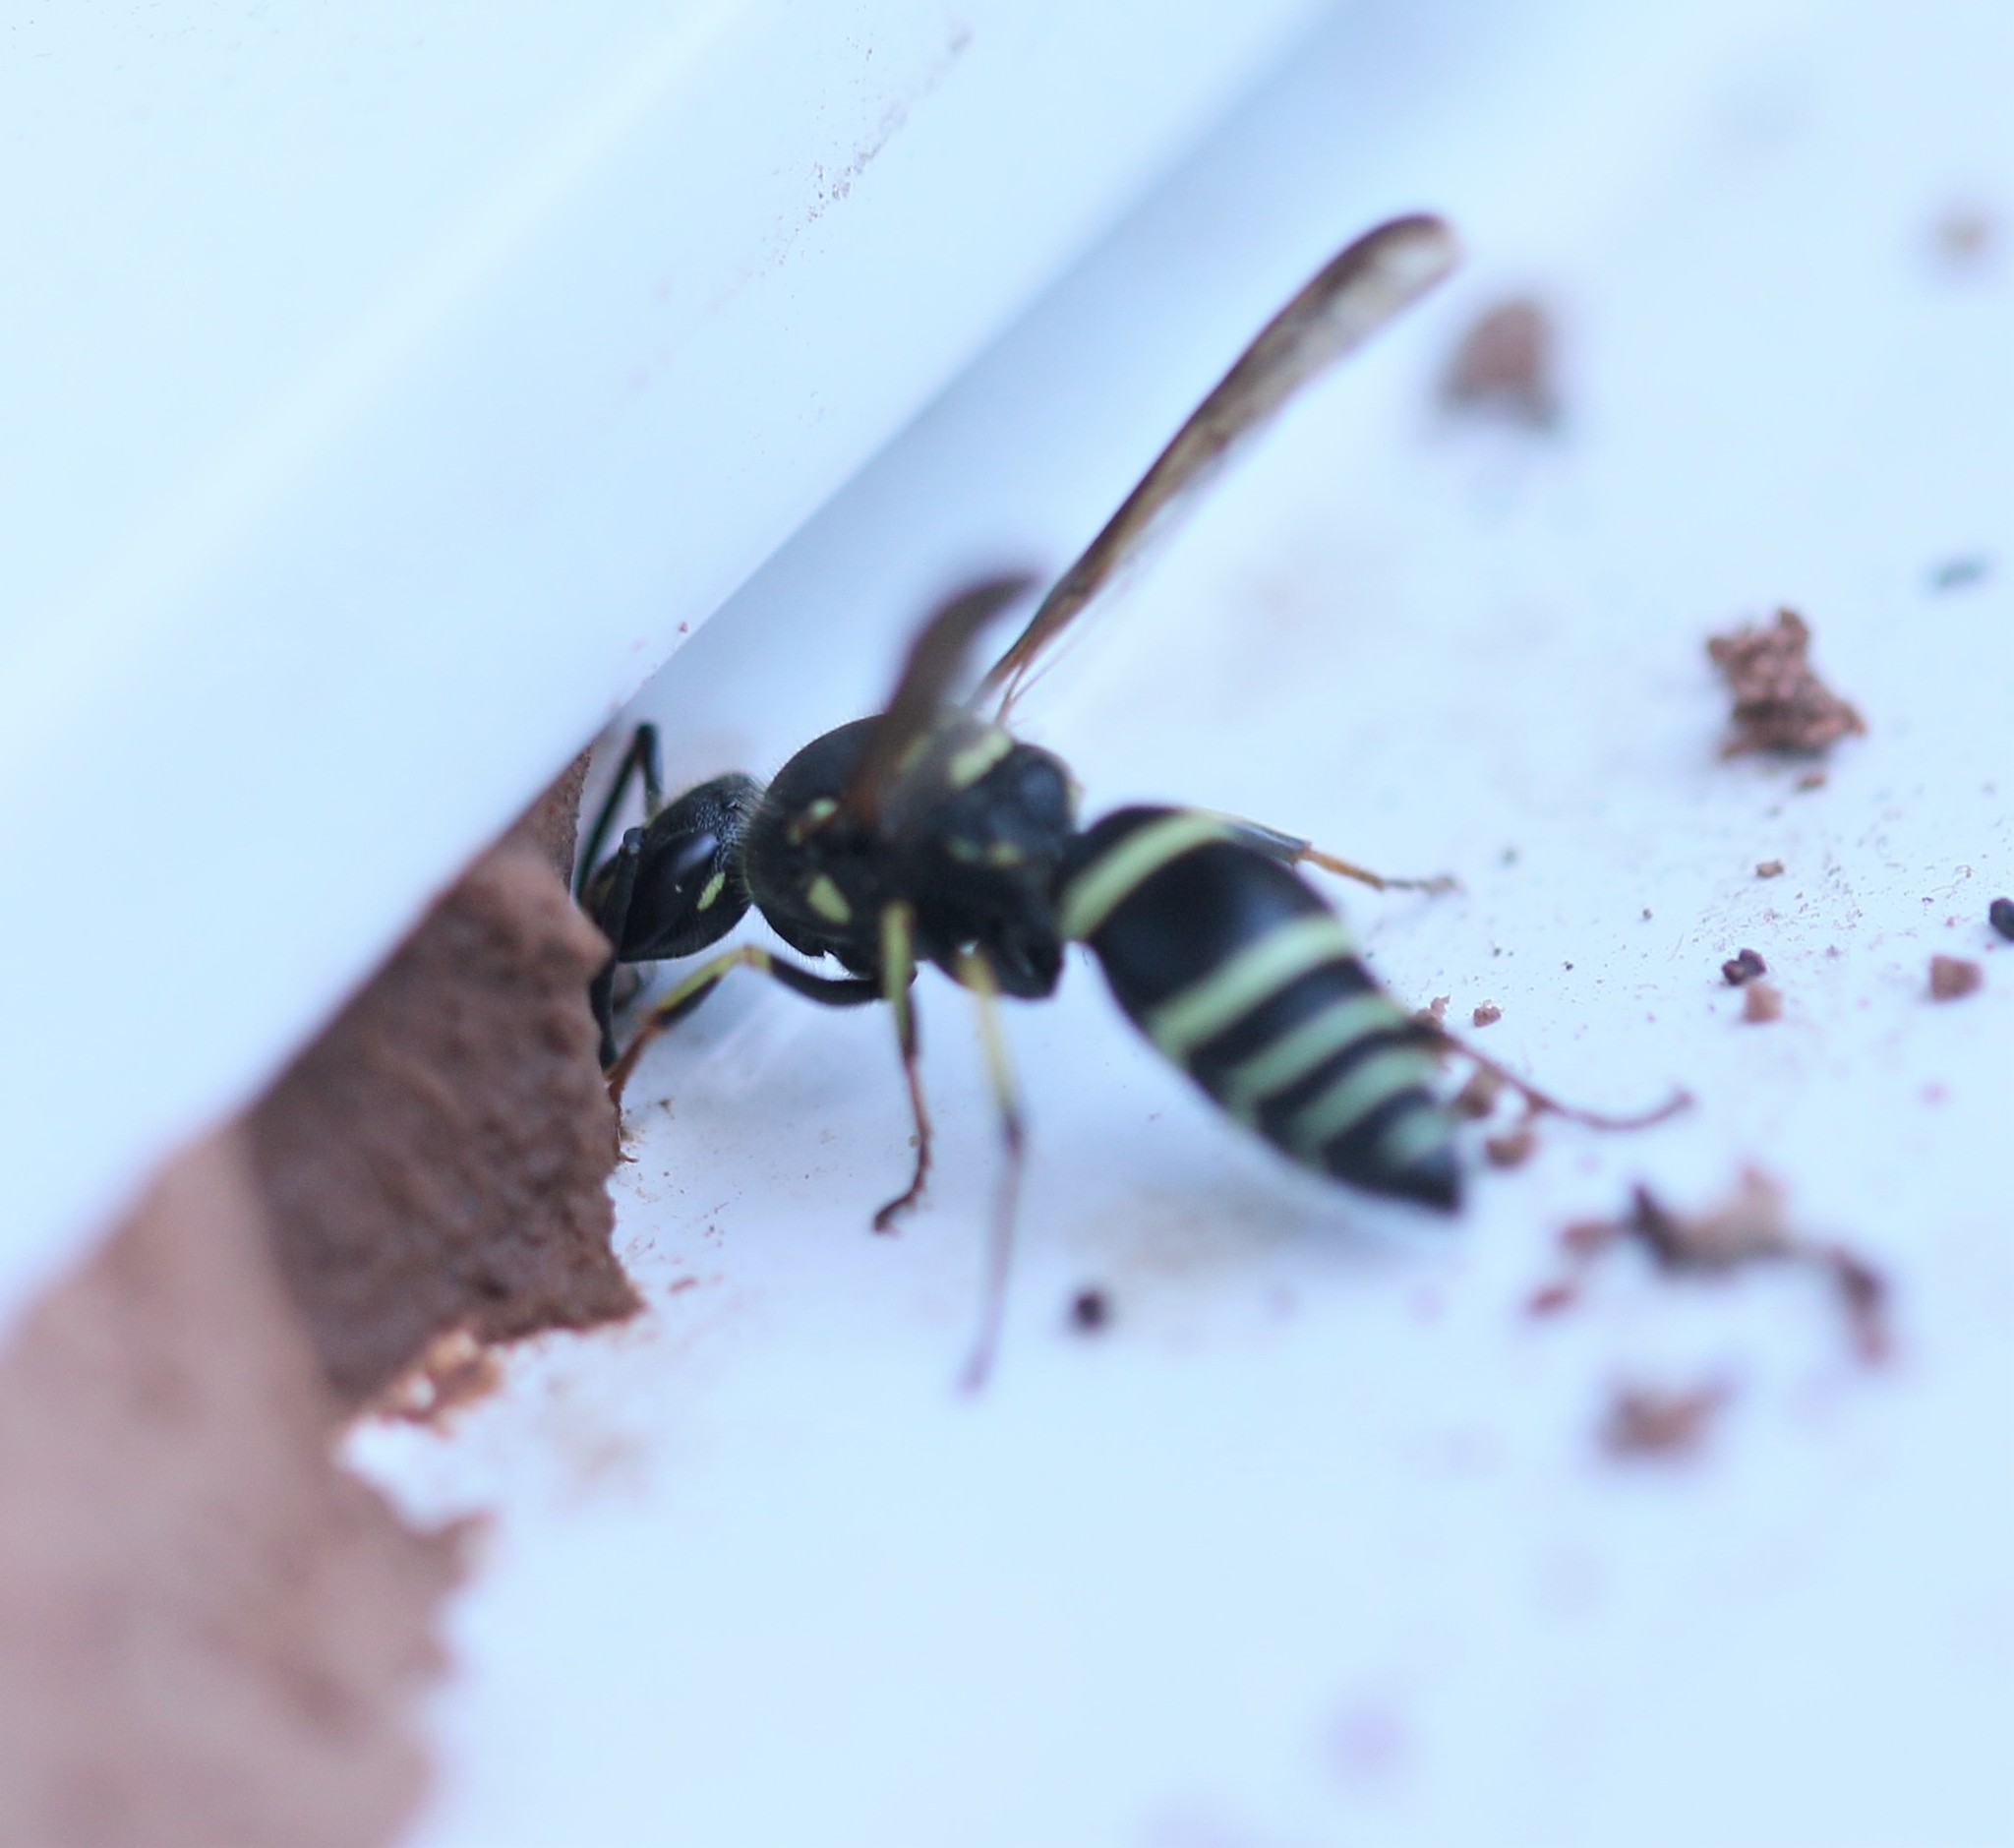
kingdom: Animalia
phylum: Arthropoda
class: Insecta
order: Hymenoptera
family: Vespidae
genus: Ancistrocerus
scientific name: Ancistrocerus catskill
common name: Vespid wasp
